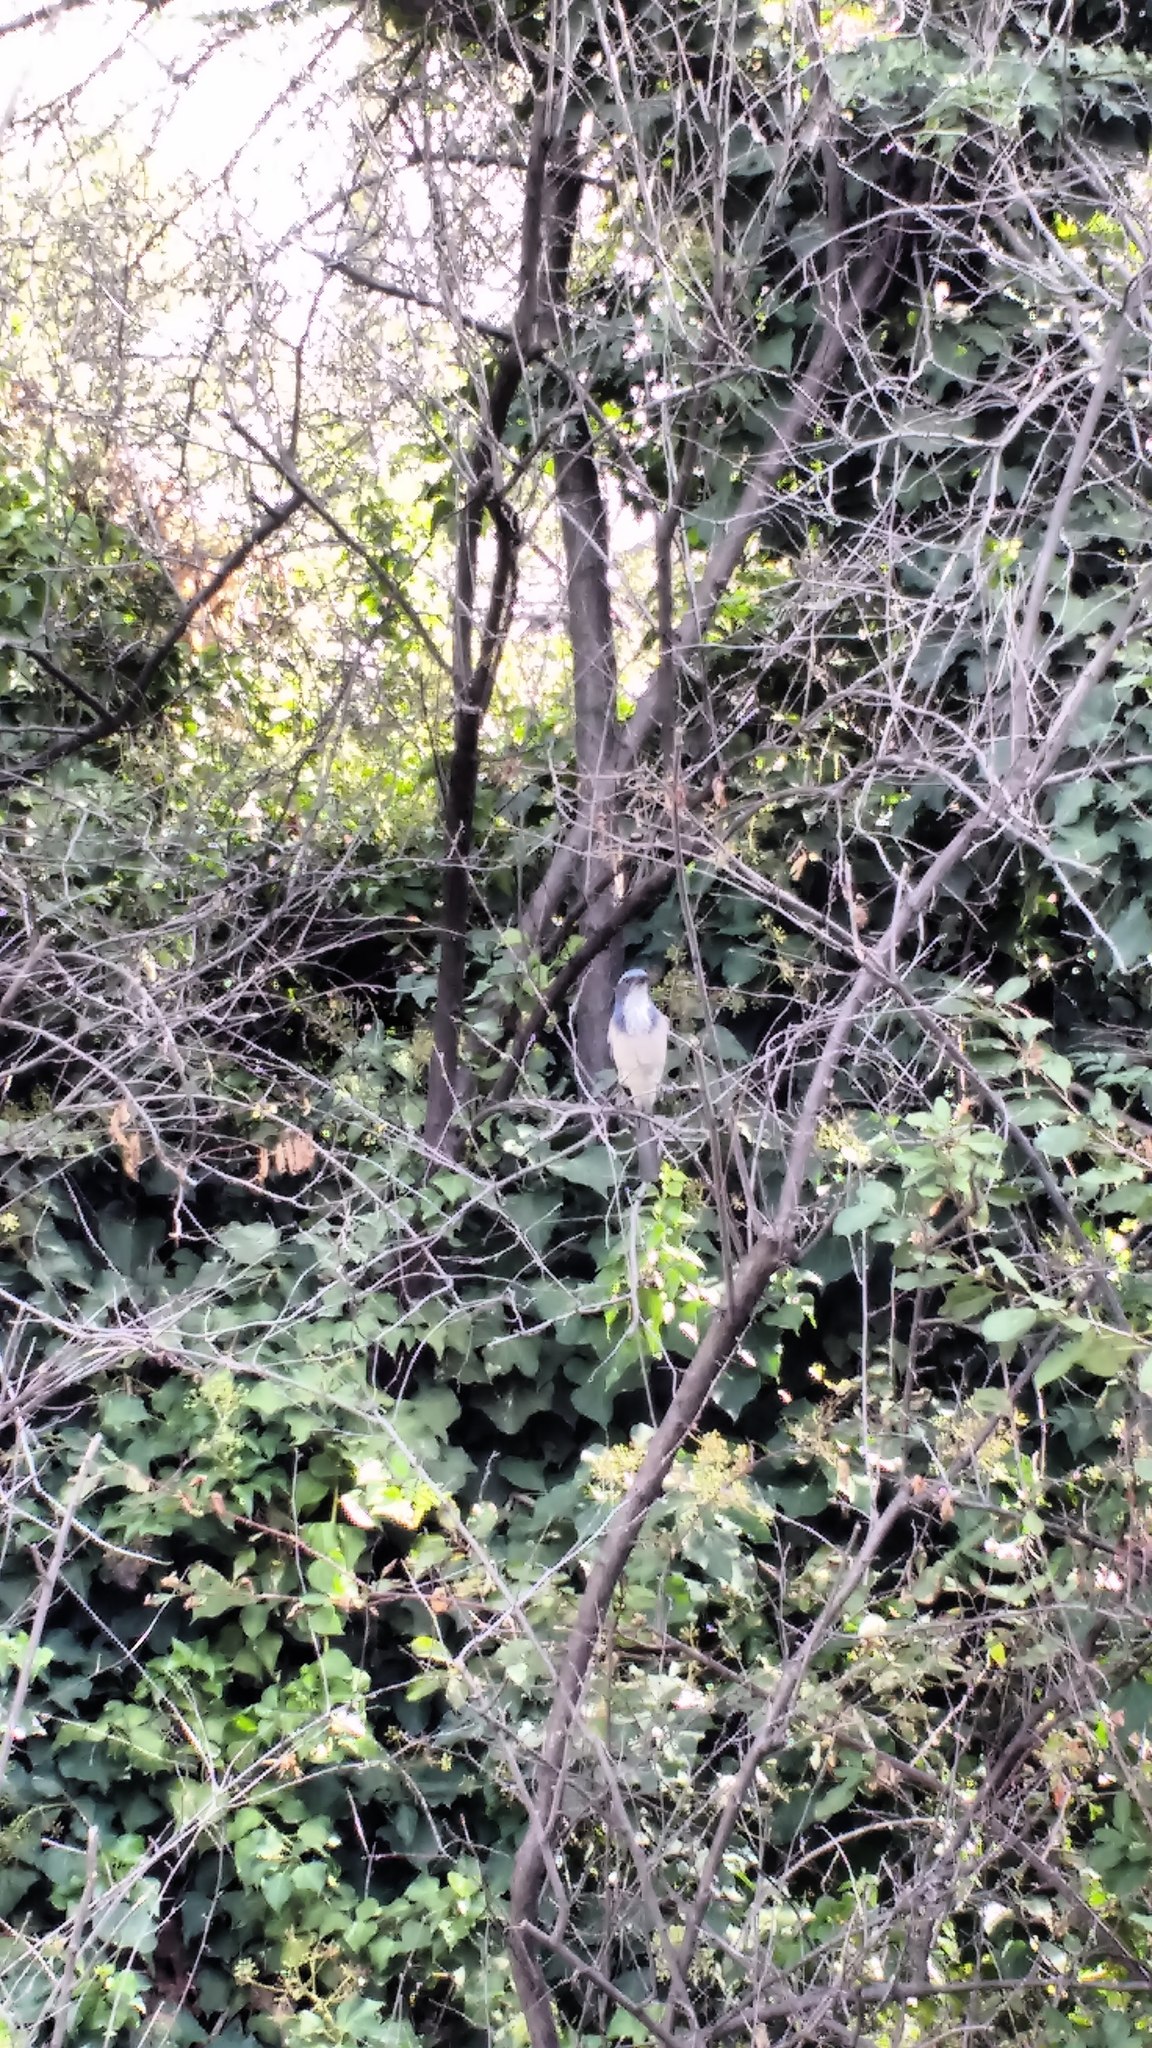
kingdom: Animalia
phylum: Chordata
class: Aves
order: Passeriformes
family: Corvidae
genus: Aphelocoma
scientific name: Aphelocoma californica
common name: California scrub-jay
